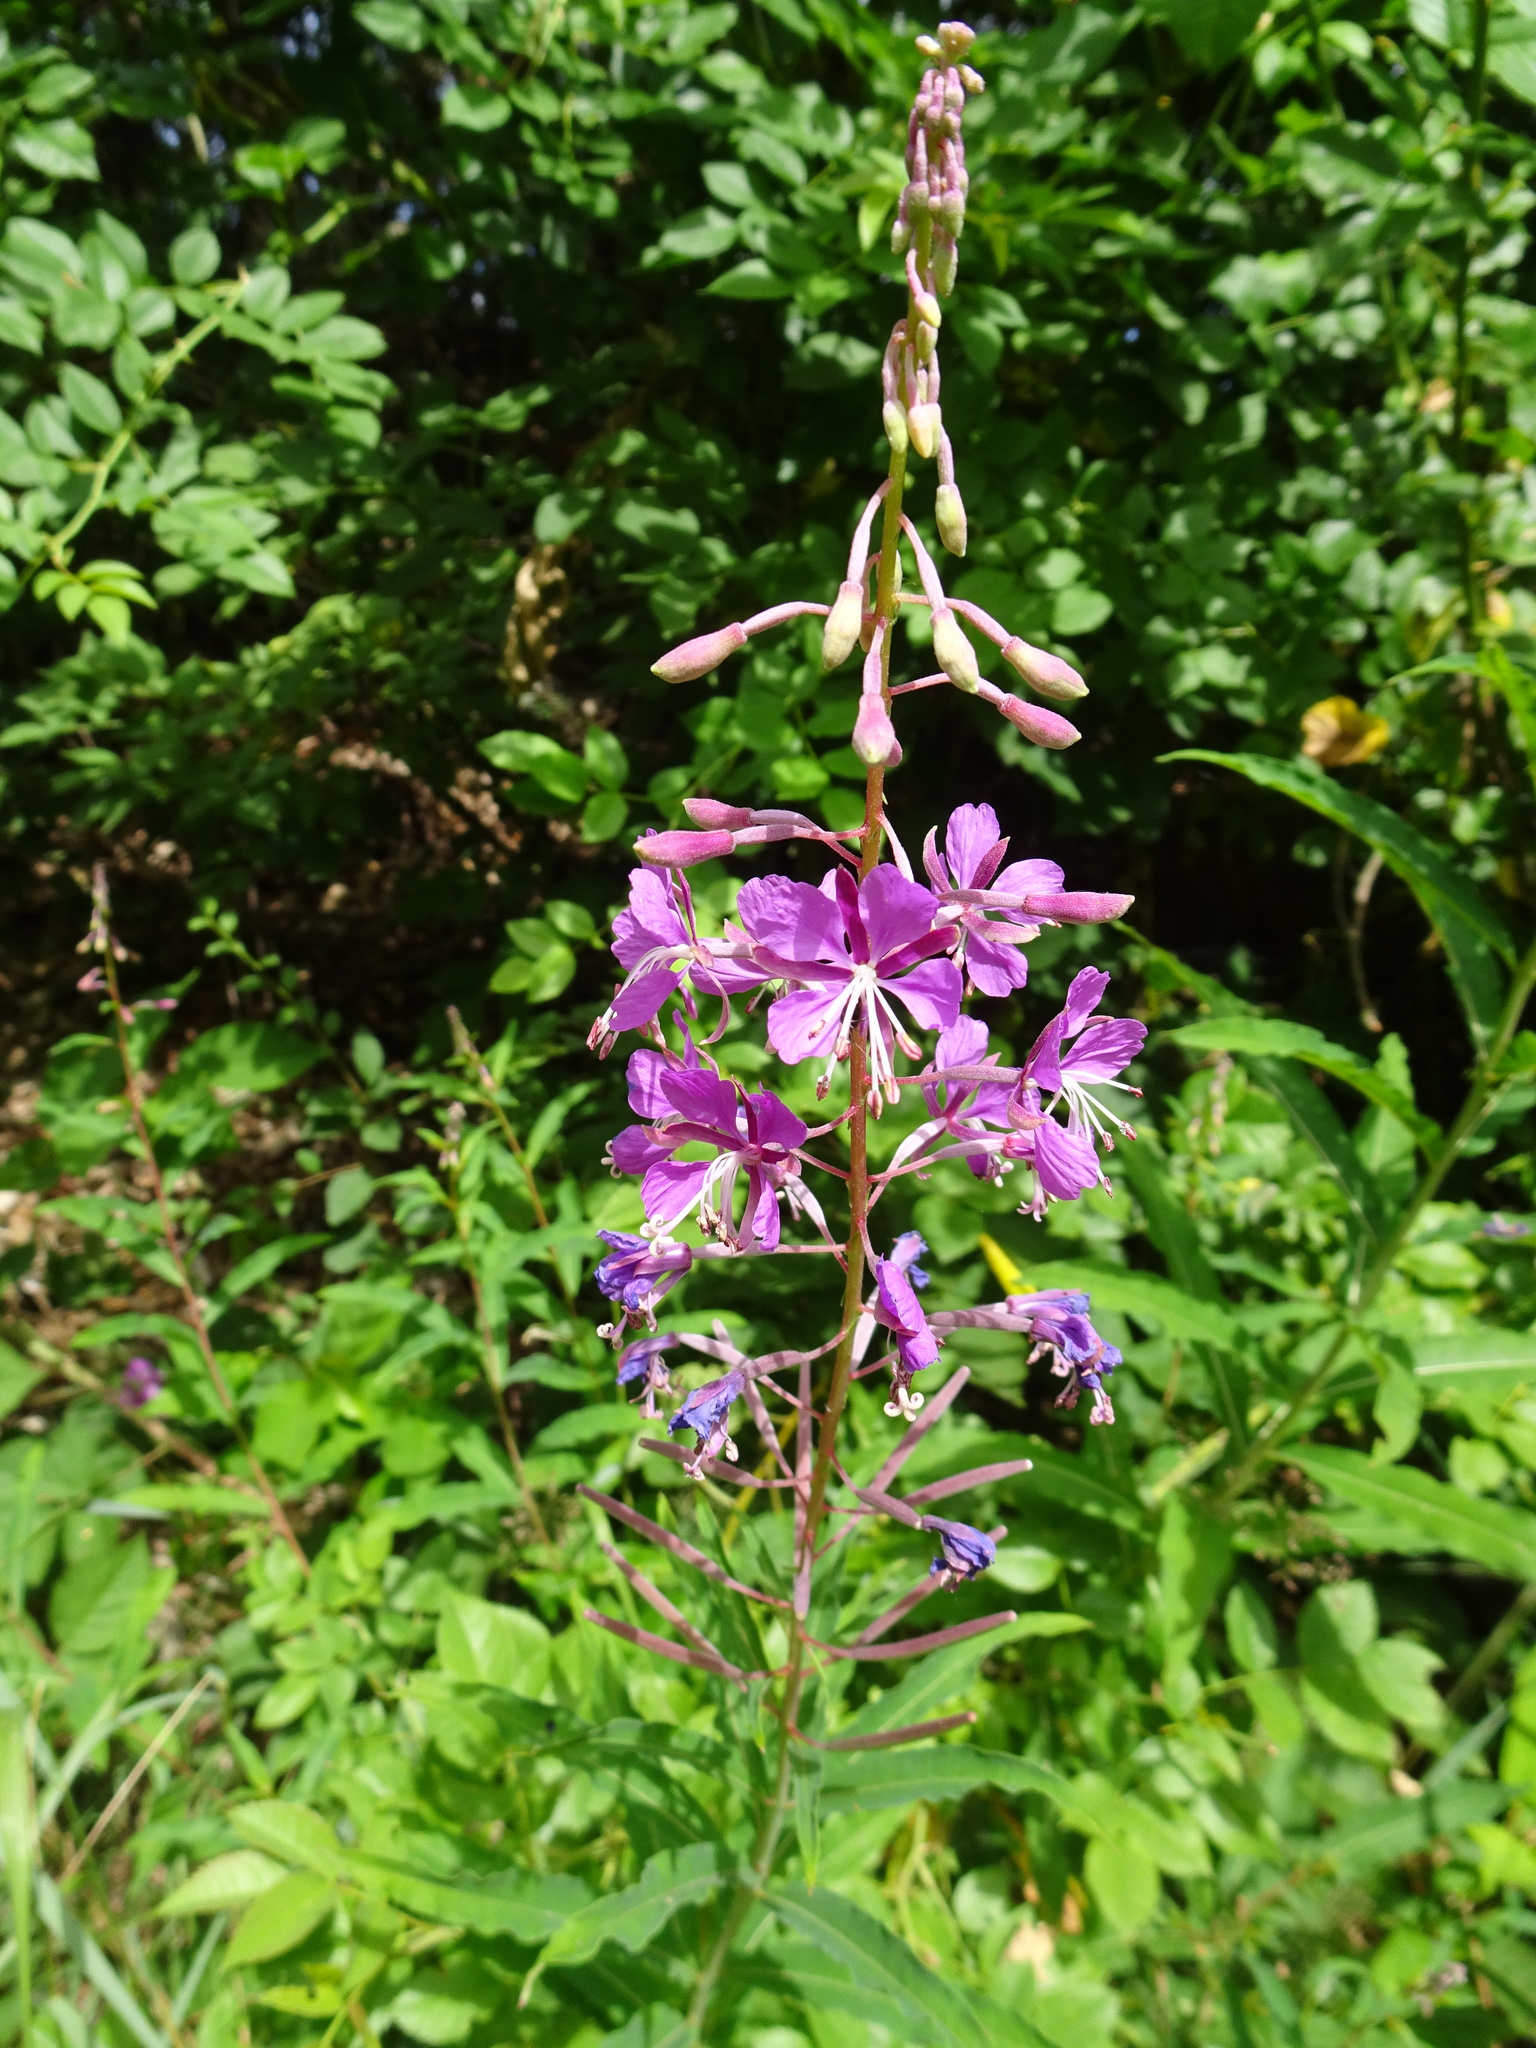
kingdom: Plantae
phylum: Tracheophyta
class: Magnoliopsida
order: Myrtales
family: Onagraceae
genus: Chamaenerion
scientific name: Chamaenerion angustifolium
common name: Fireweed
